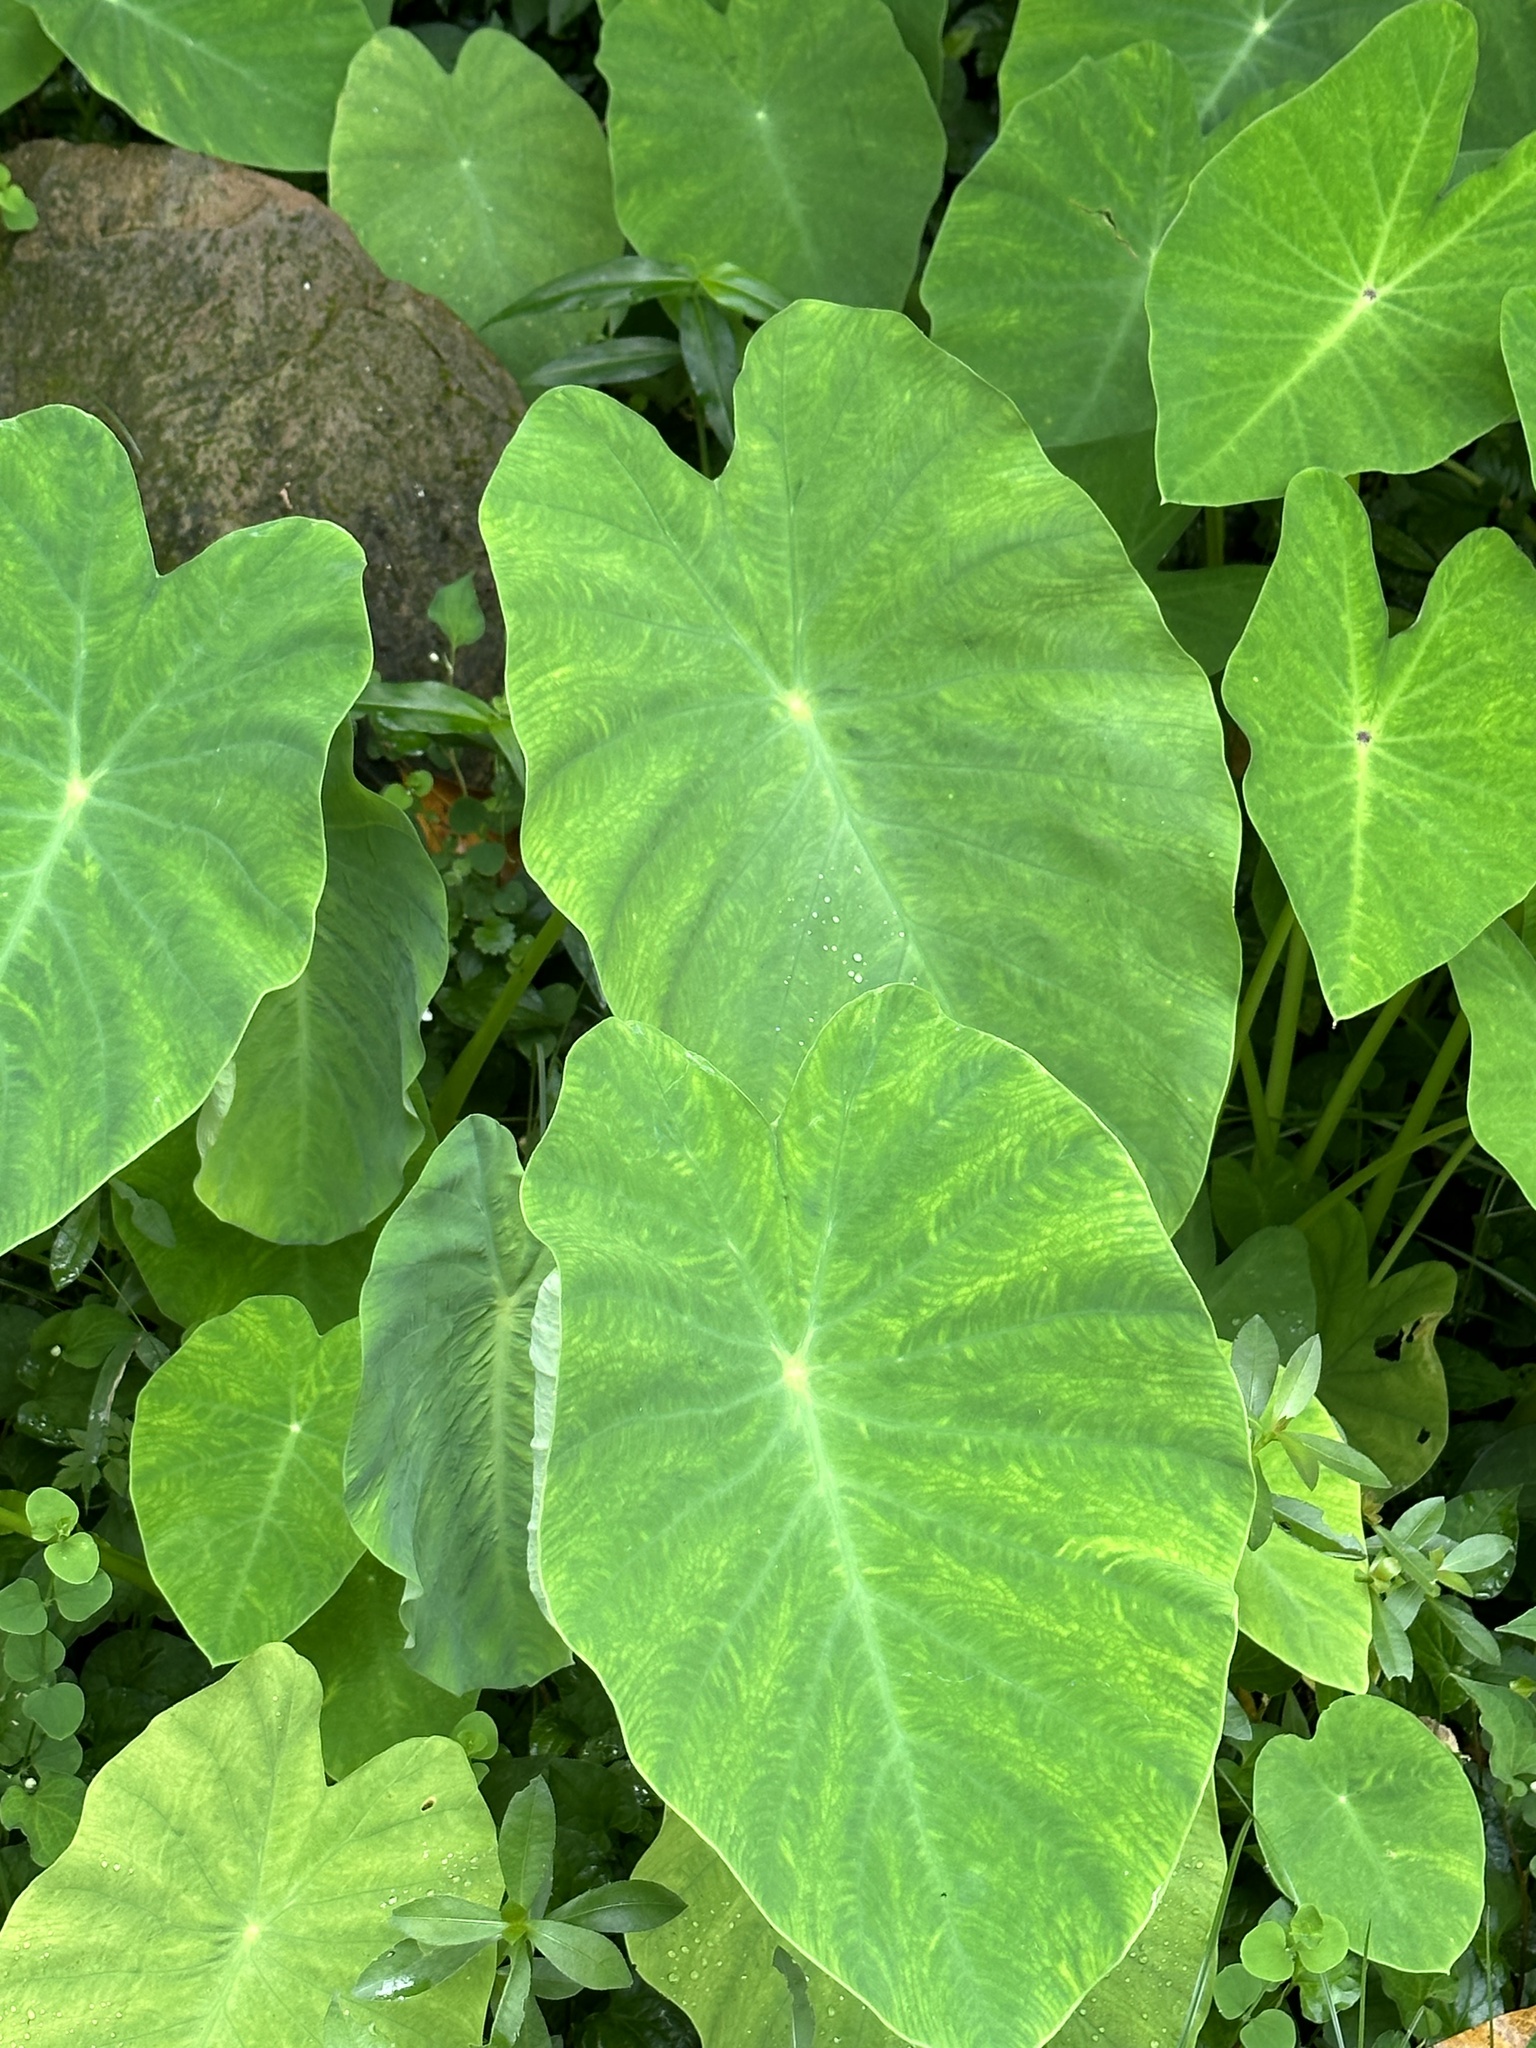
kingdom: Plantae
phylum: Tracheophyta
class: Liliopsida
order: Alismatales
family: Araceae
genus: Colocasia
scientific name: Colocasia esculenta
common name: Taro
